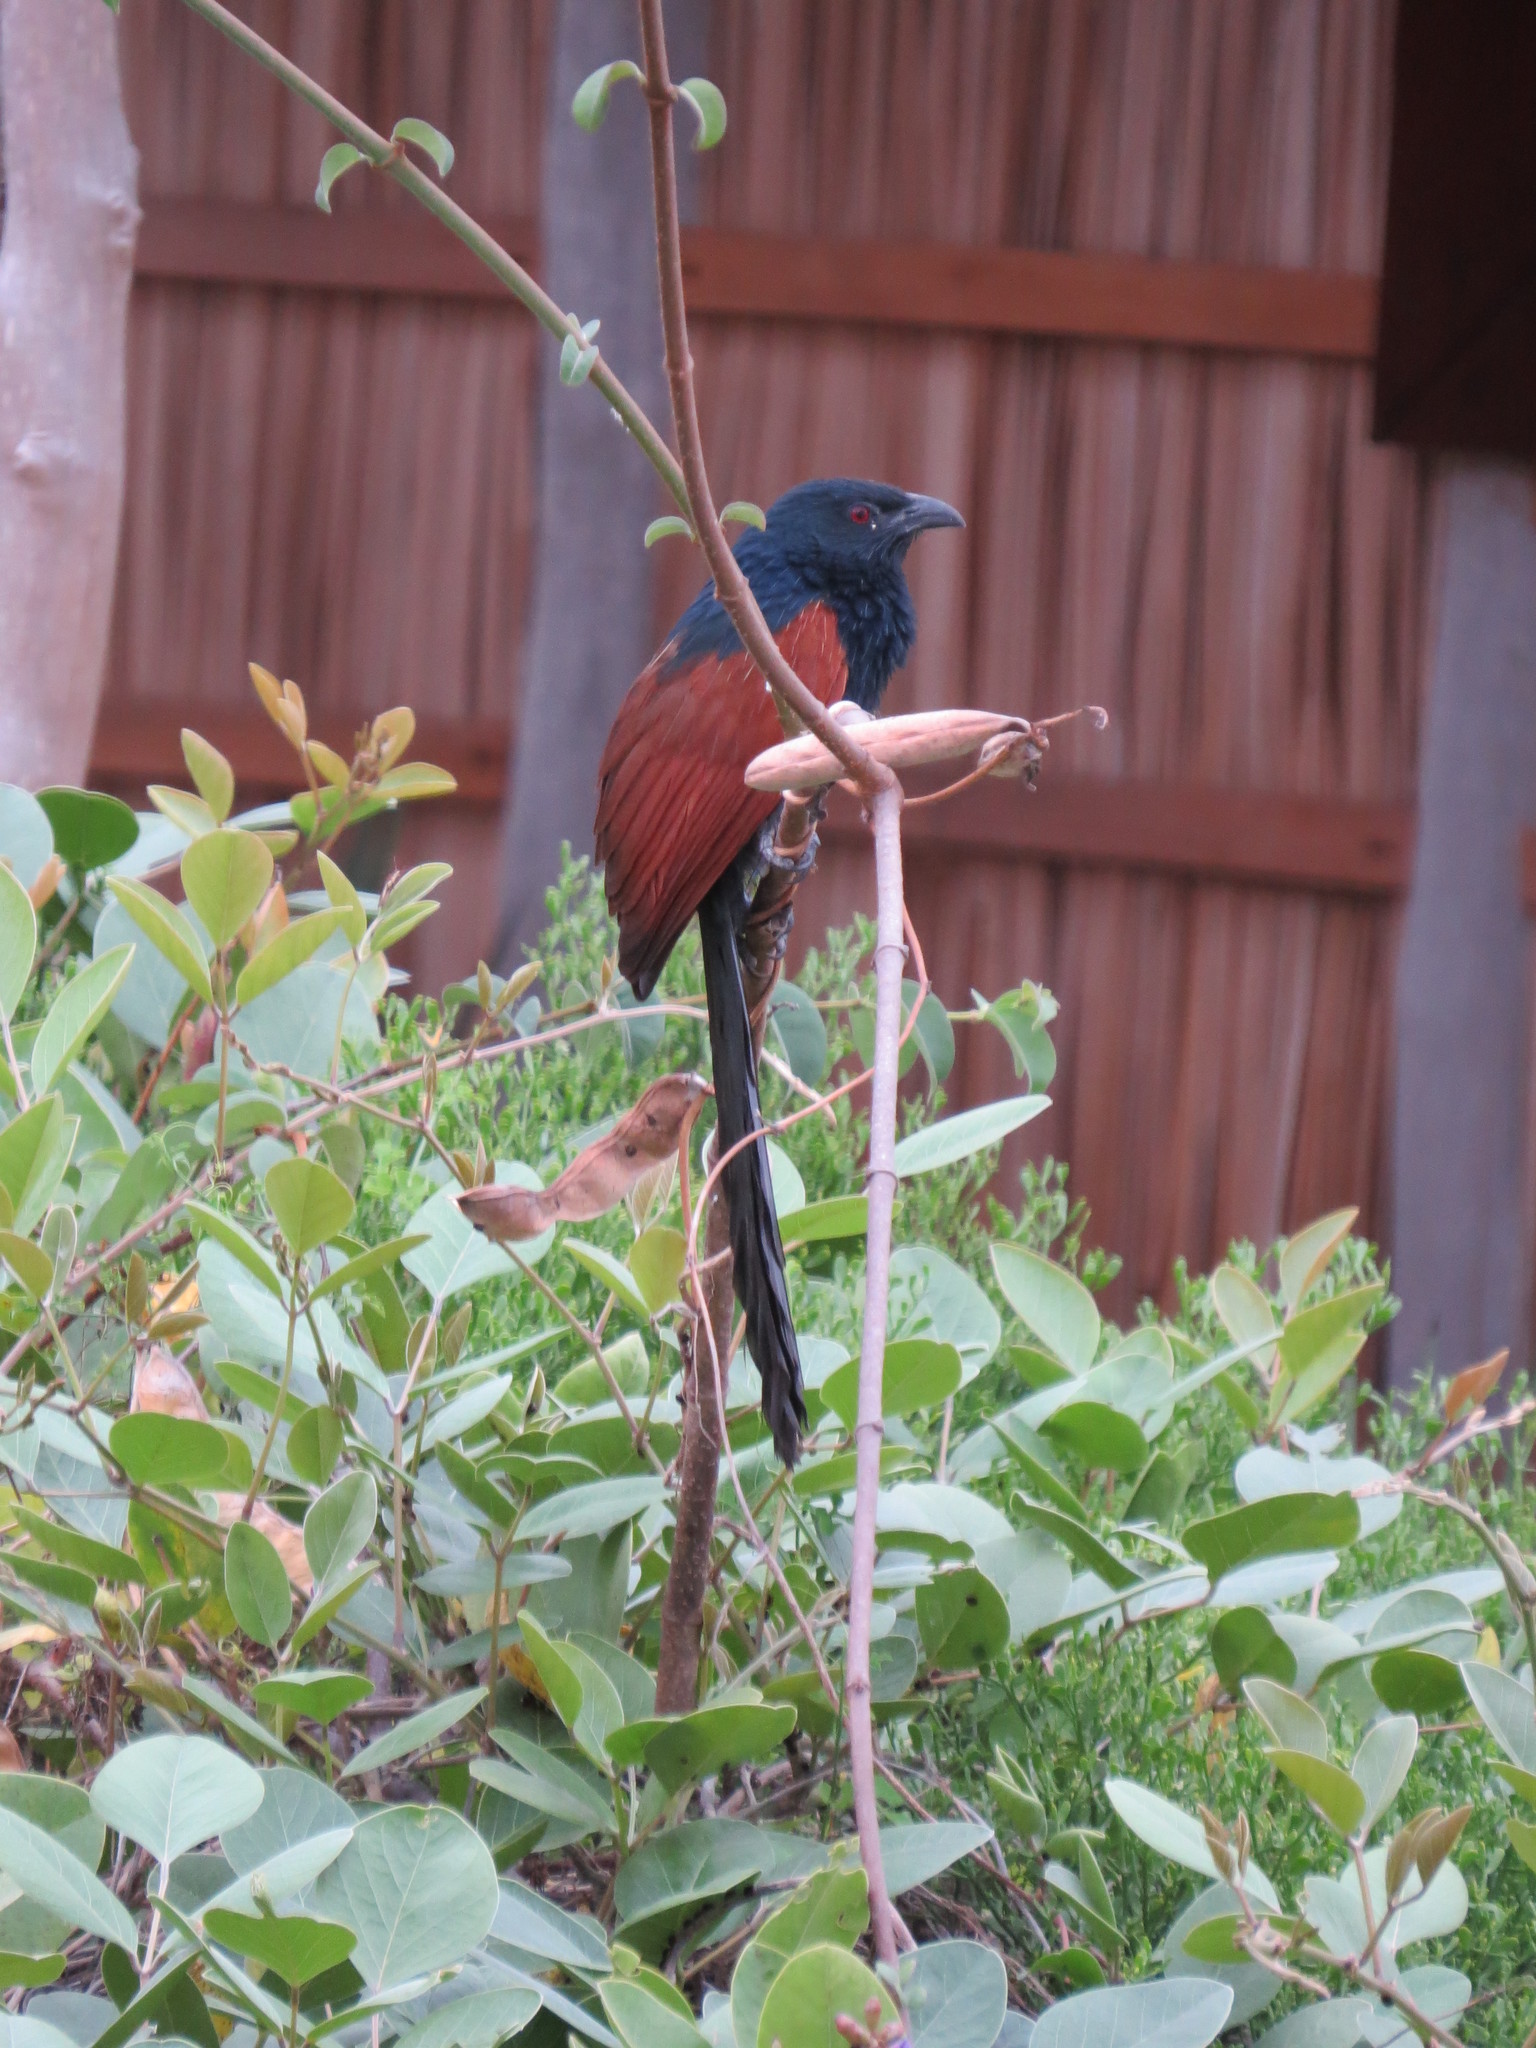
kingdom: Animalia
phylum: Chordata
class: Aves
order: Cuculiformes
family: Cuculidae
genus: Centropus
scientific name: Centropus toulou
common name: Malagasy coucal
